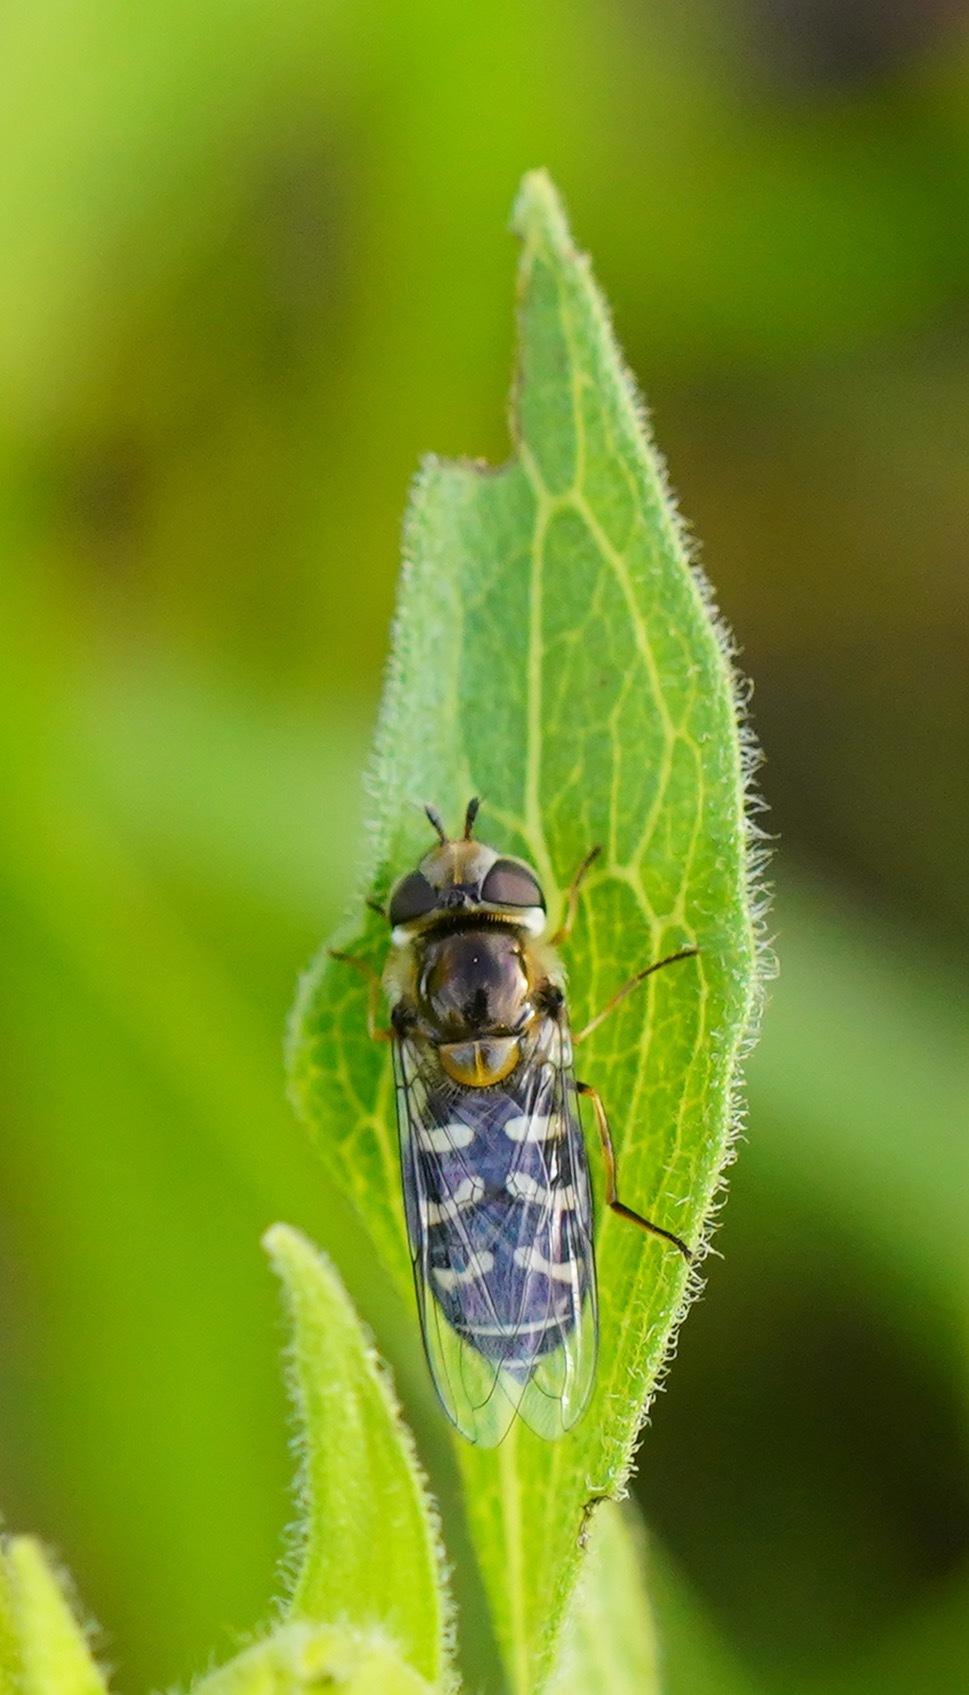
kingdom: Animalia
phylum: Arthropoda
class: Insecta
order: Diptera
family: Syrphidae
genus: Scaeva
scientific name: Scaeva affinis
